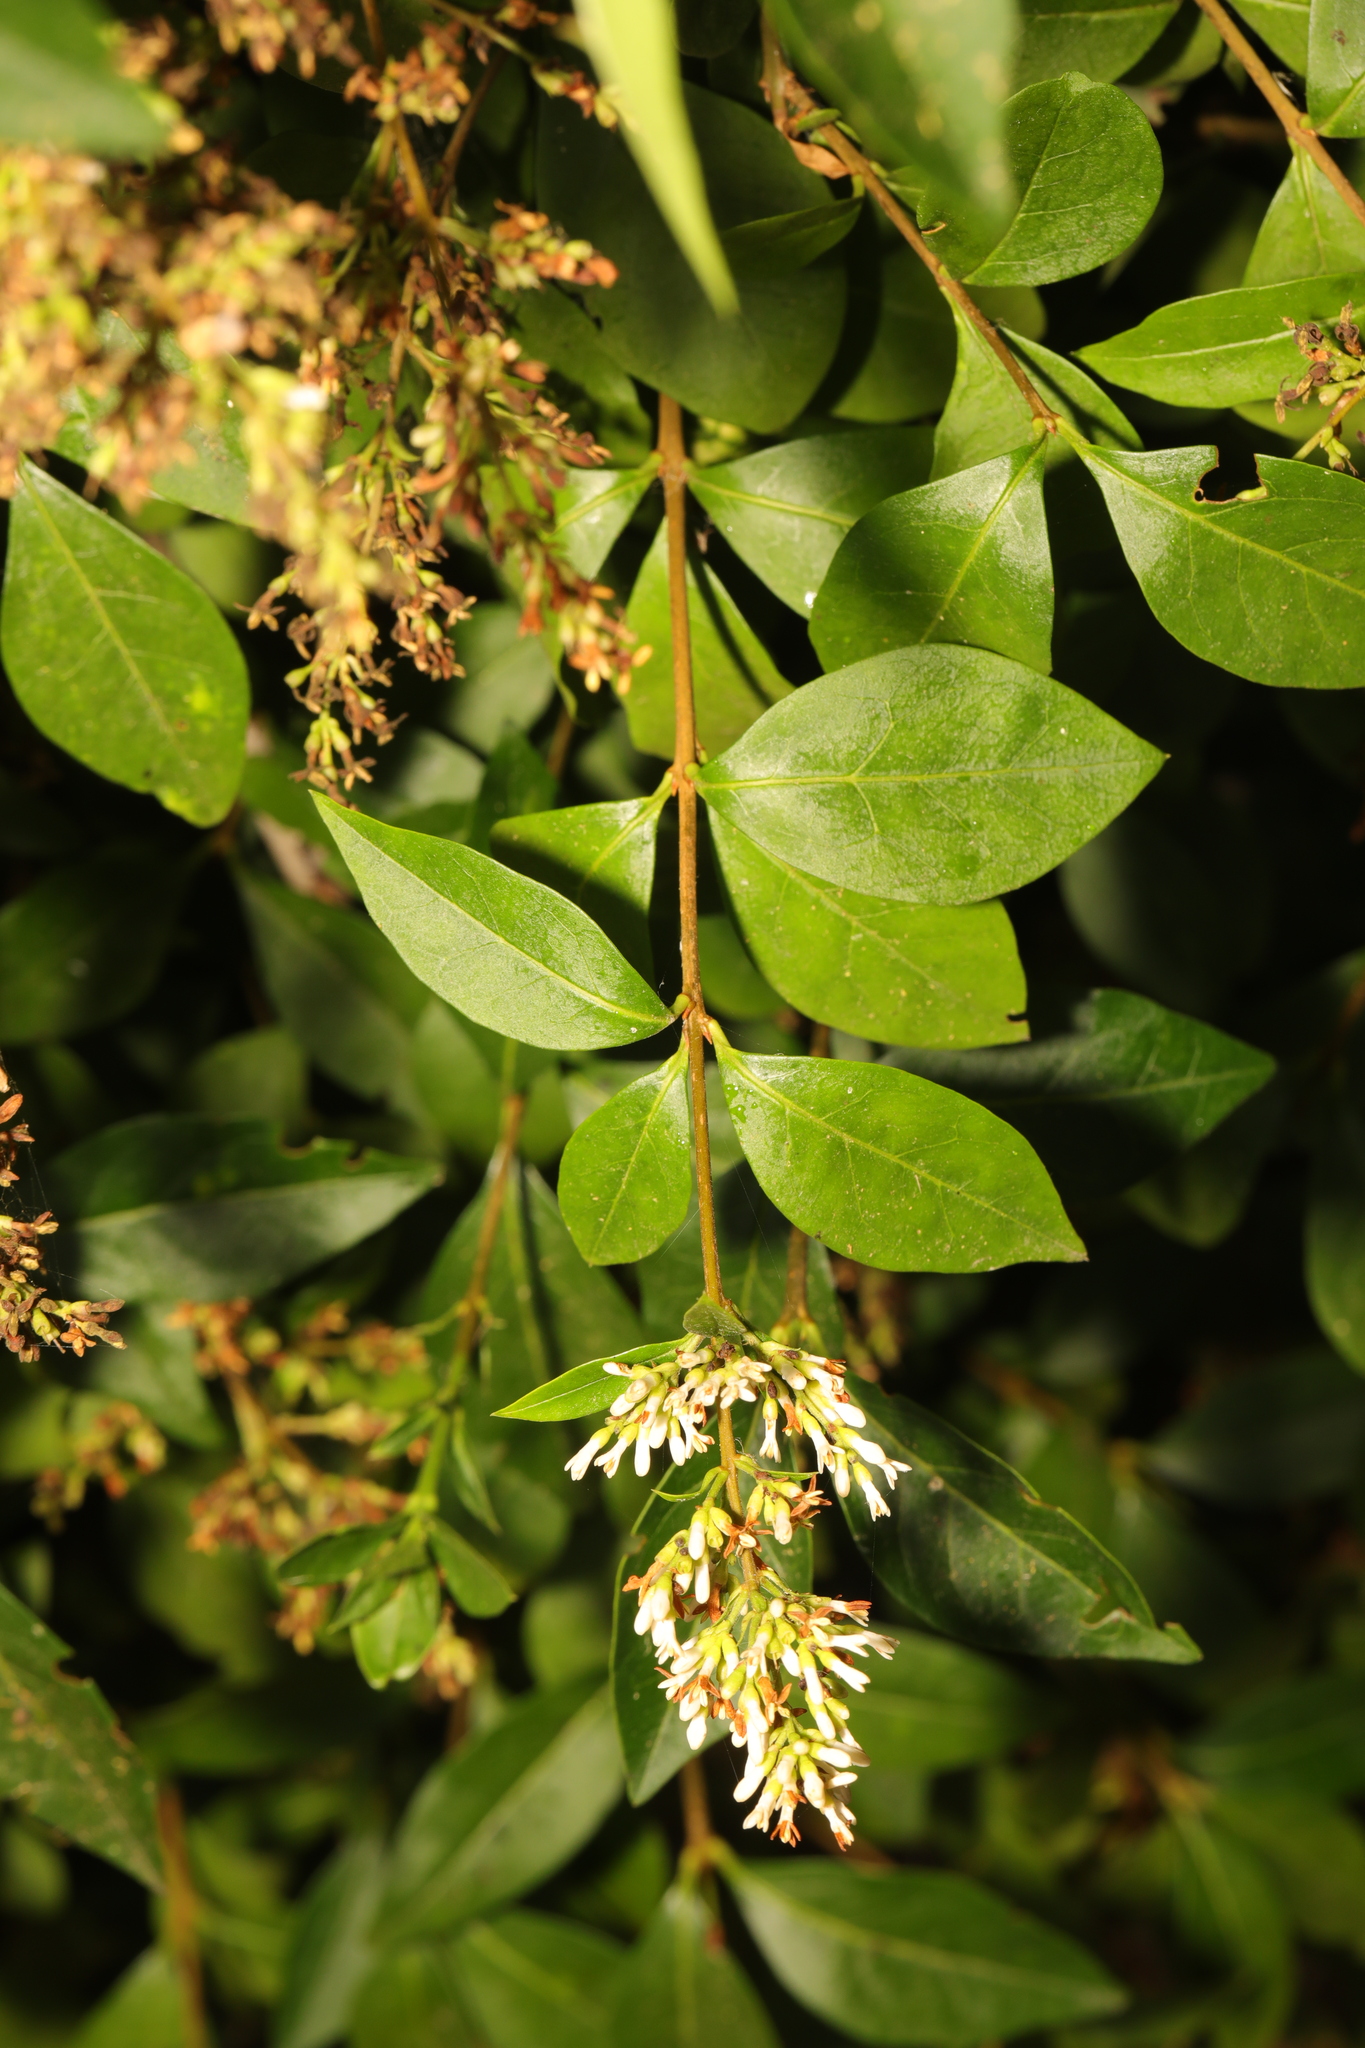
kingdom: Plantae
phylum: Tracheophyta
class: Magnoliopsida
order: Lamiales
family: Oleaceae
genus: Ligustrum
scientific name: Ligustrum ovalifolium
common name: California privet
